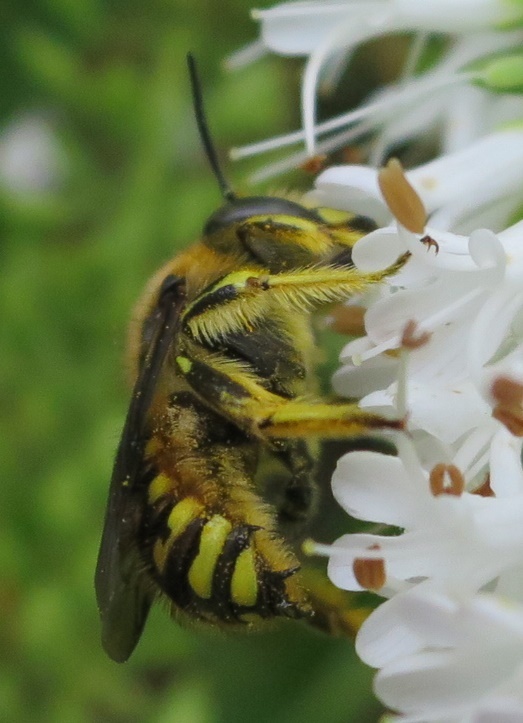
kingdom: Animalia
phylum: Arthropoda
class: Insecta
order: Hymenoptera
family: Megachilidae
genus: Anthidium
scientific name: Anthidium manicatum
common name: Wool carder bee
